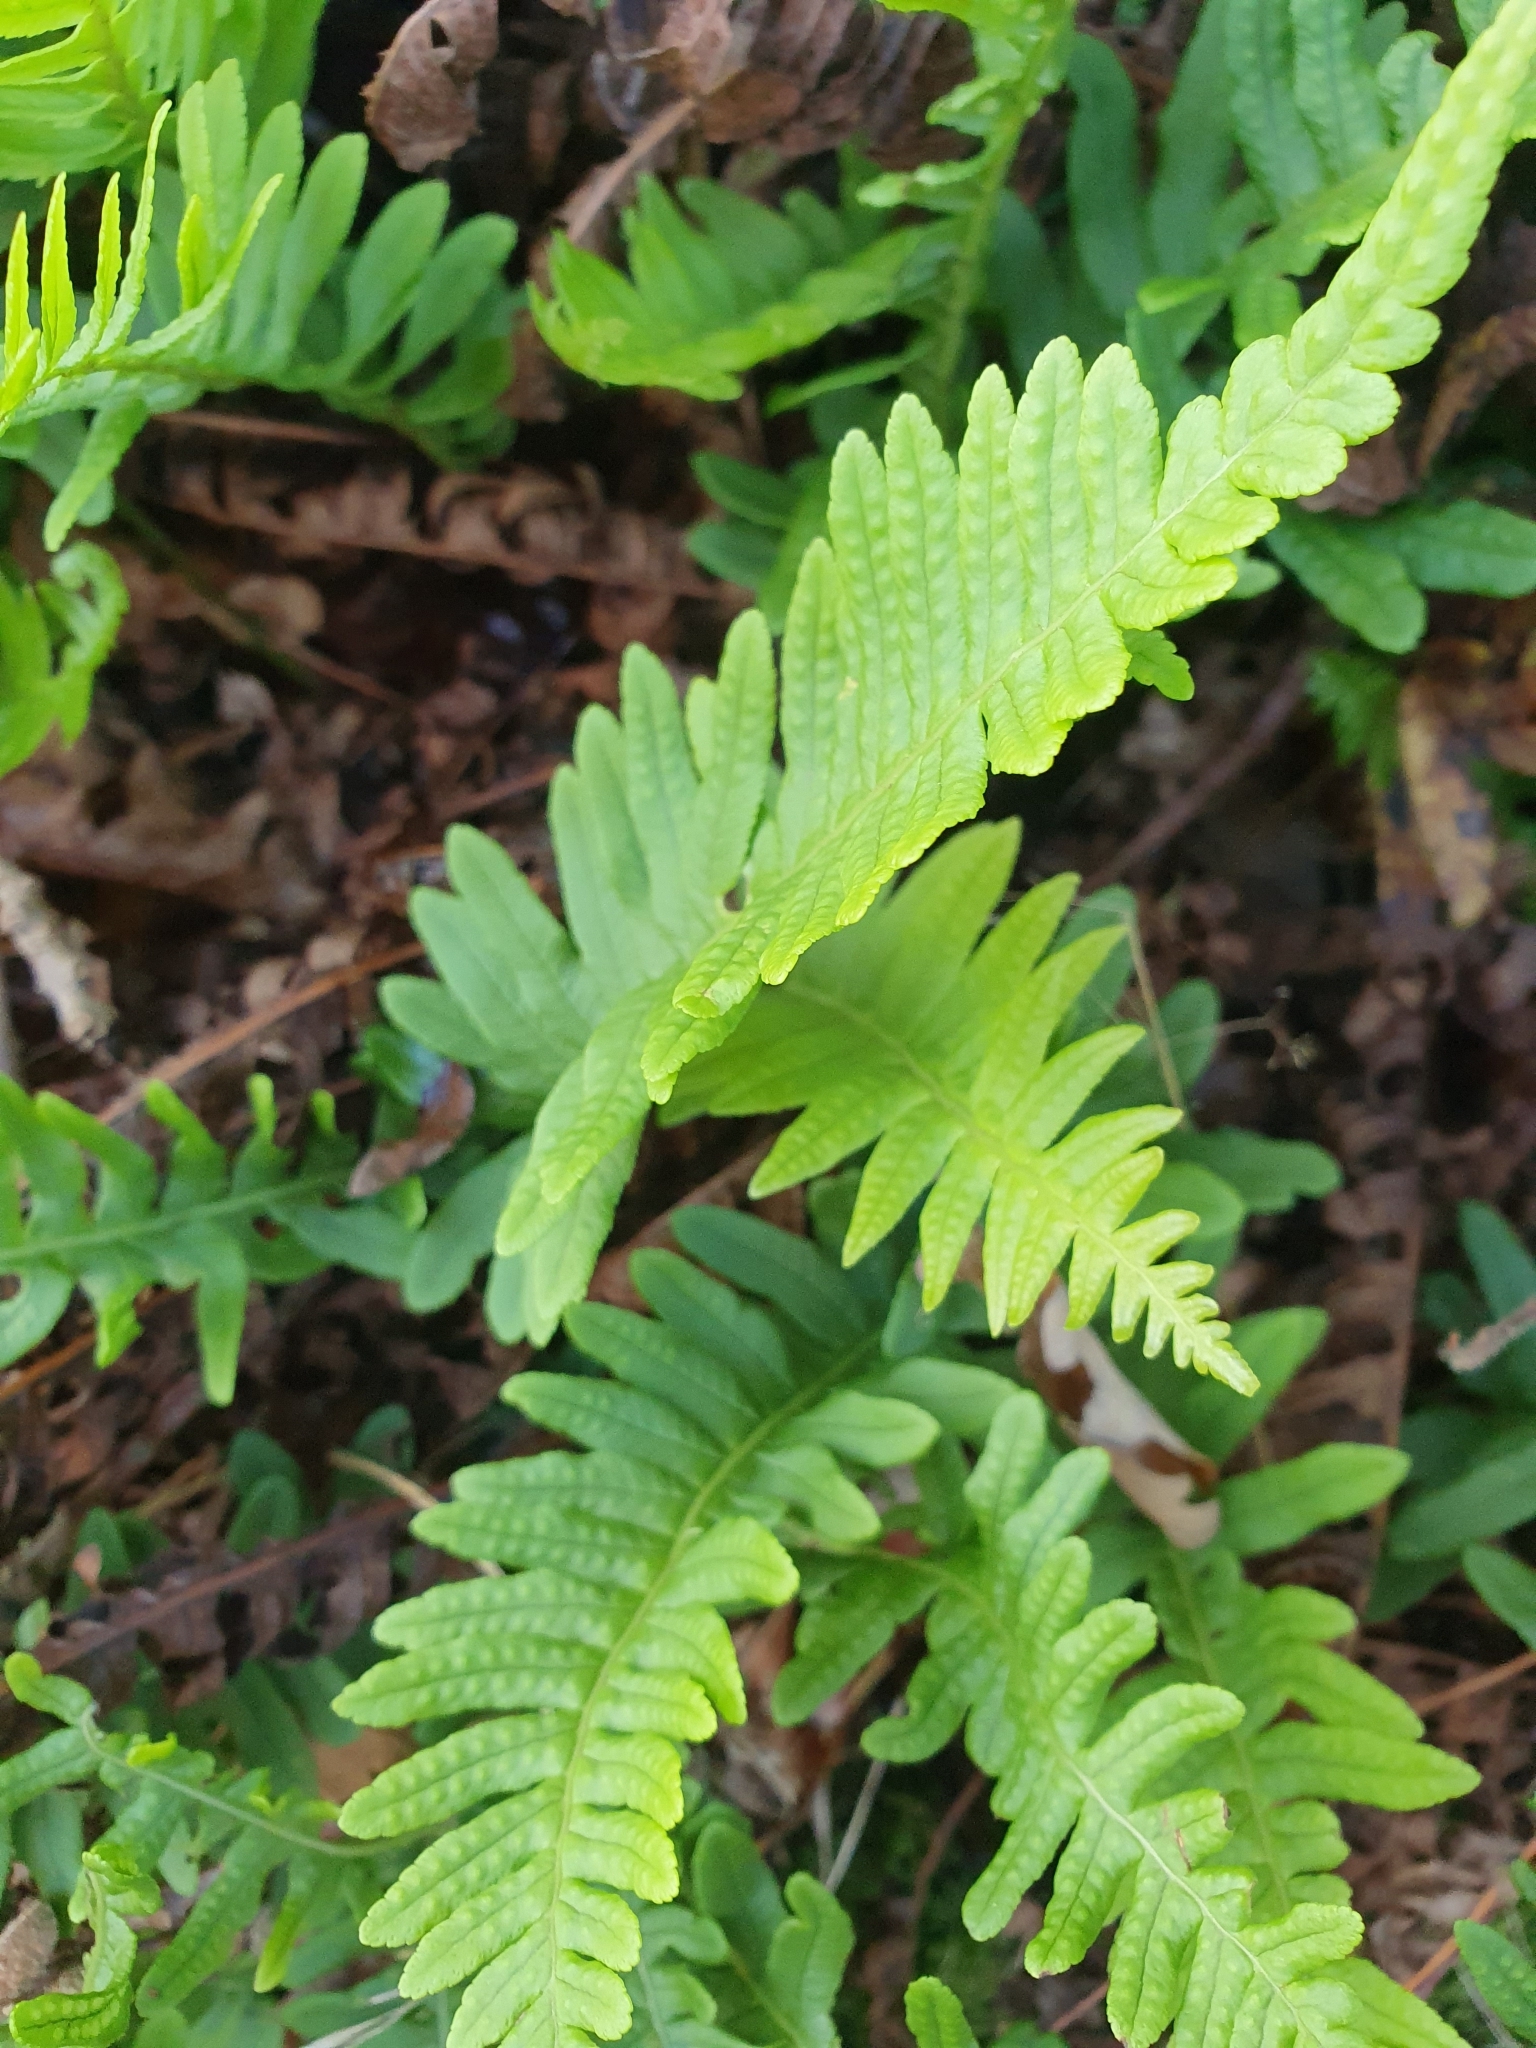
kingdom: Plantae
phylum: Tracheophyta
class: Polypodiopsida
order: Polypodiales
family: Polypodiaceae
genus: Polypodium
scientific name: Polypodium
